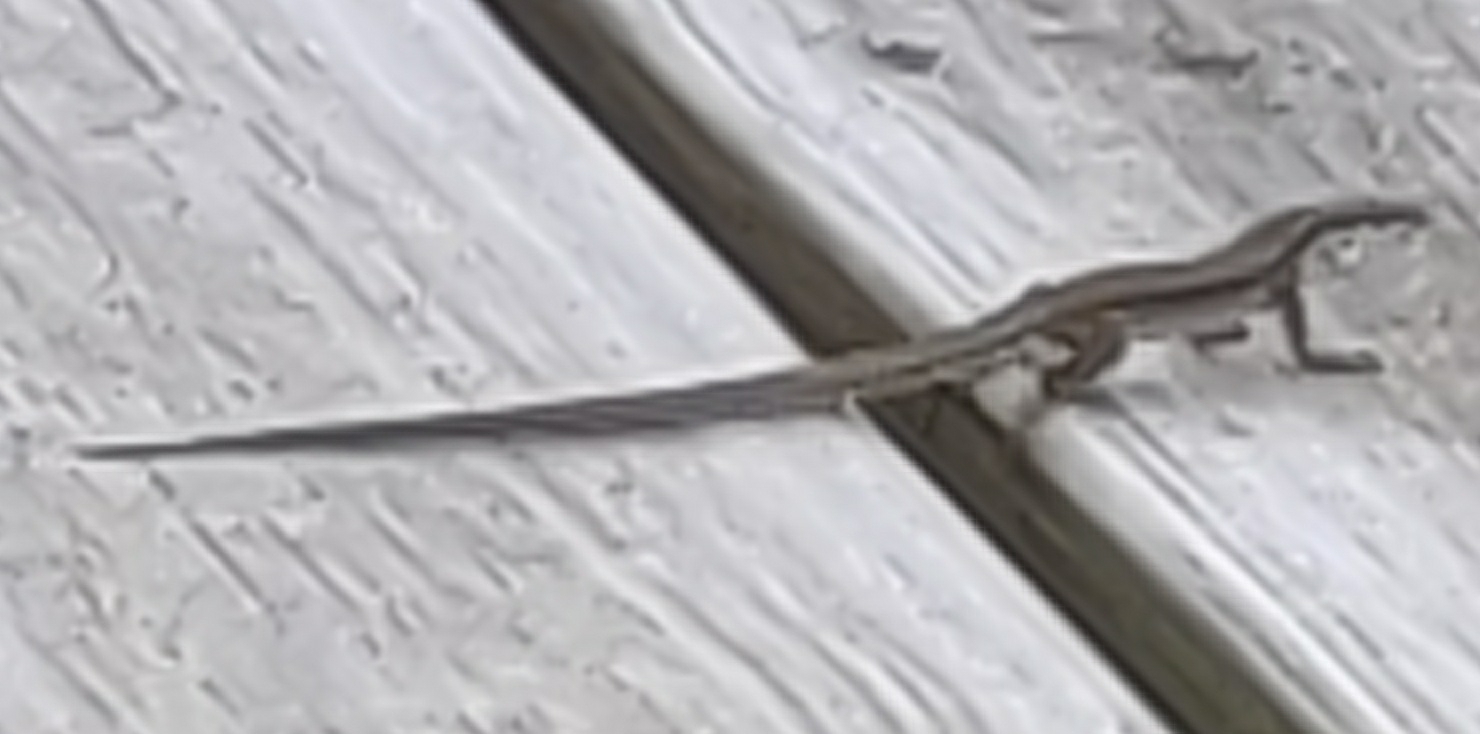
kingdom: Animalia
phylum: Chordata
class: Squamata
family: Lacertidae
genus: Podarcis
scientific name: Podarcis muralis
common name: Common wall lizard
